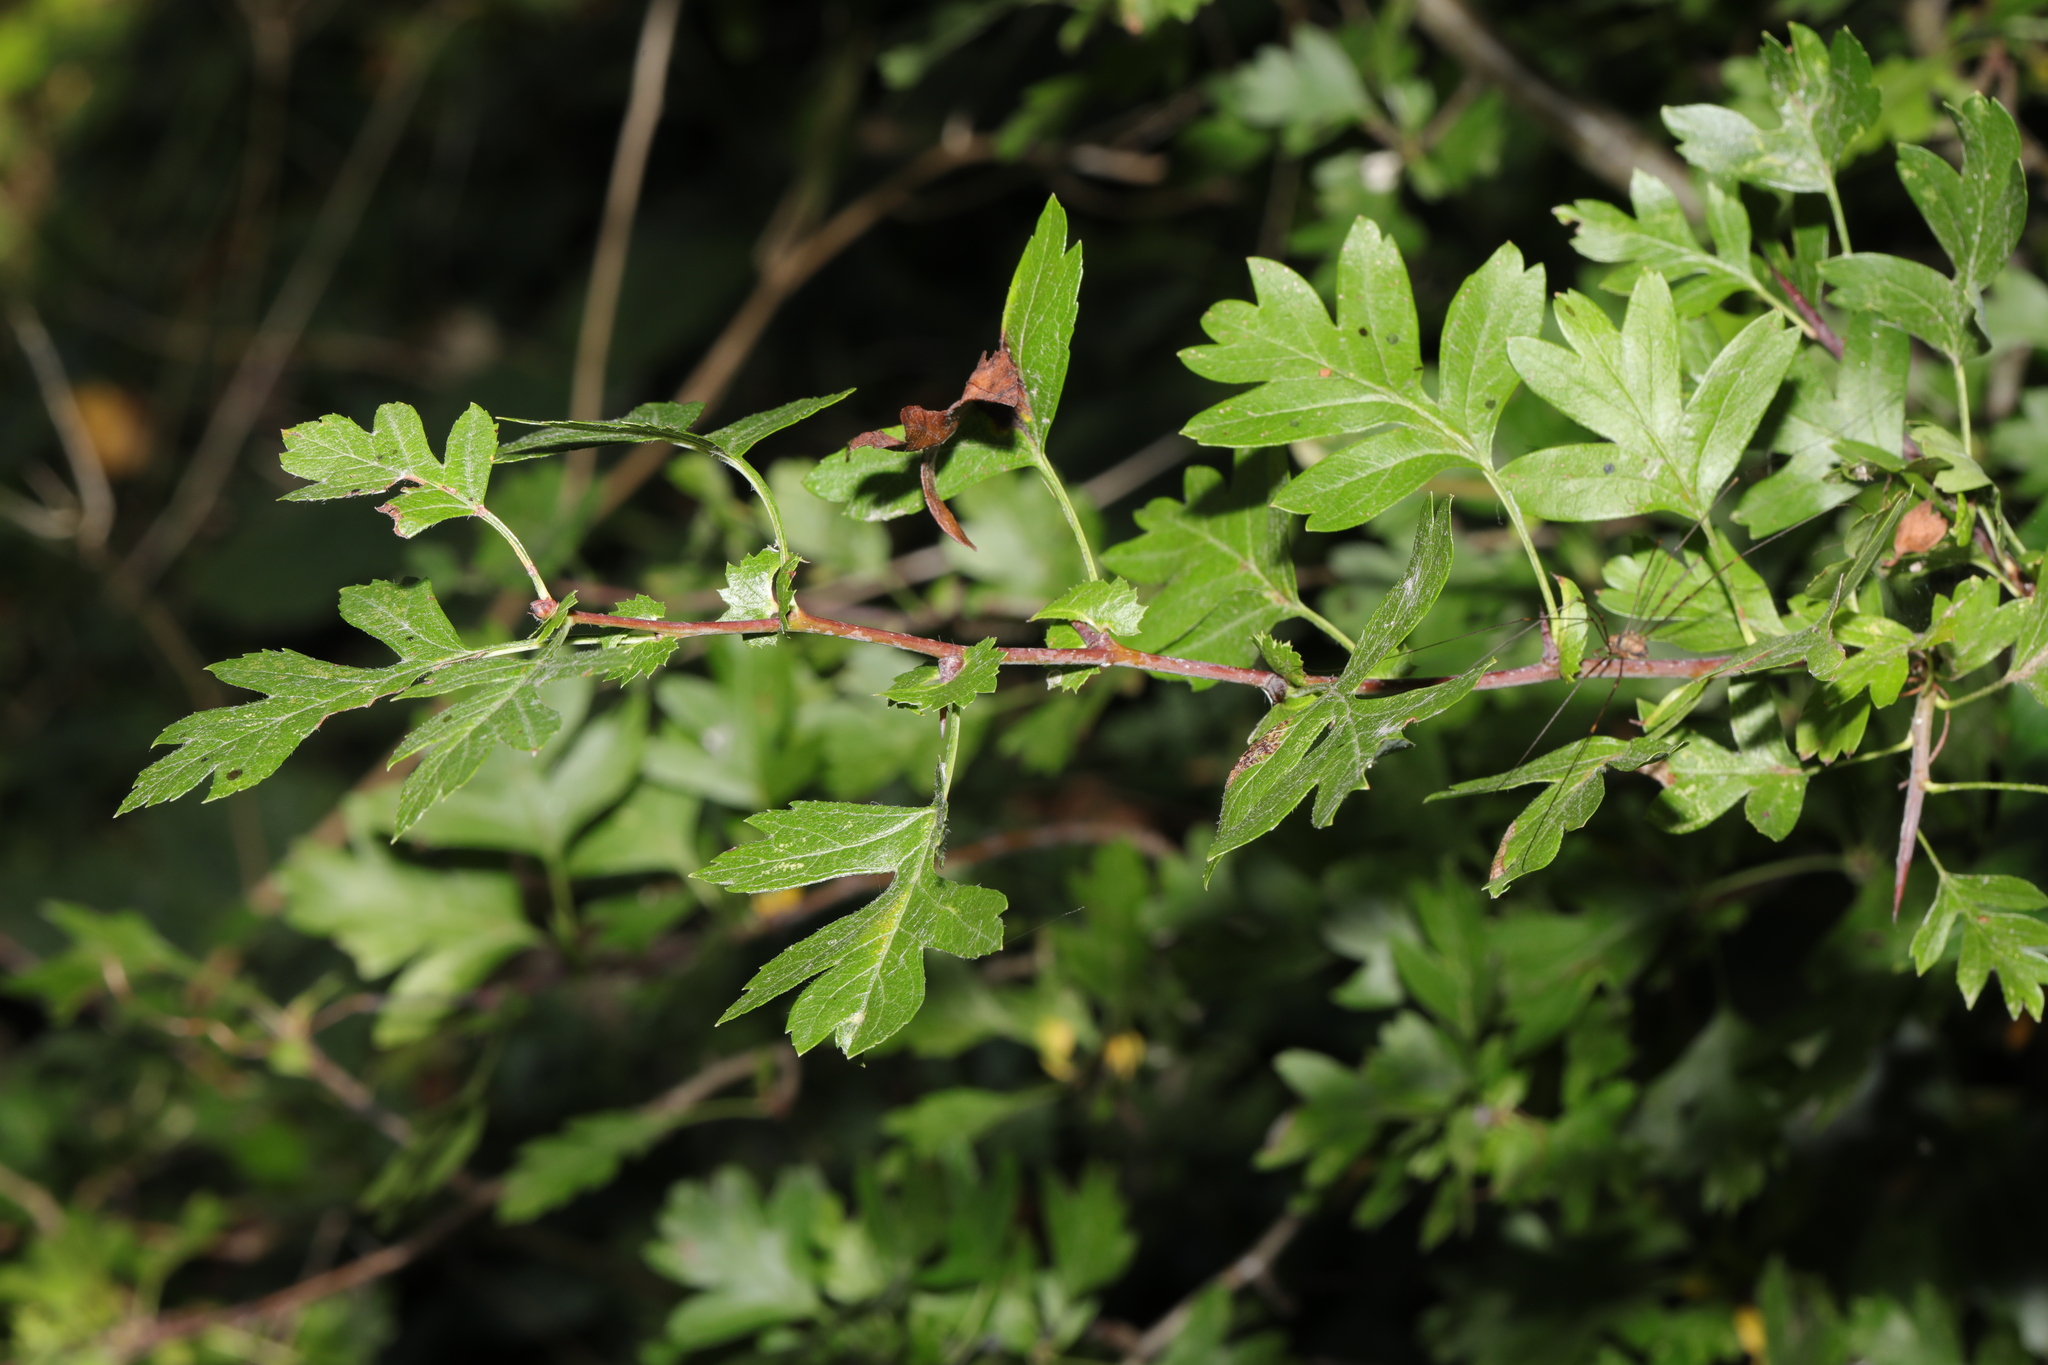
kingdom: Plantae
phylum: Tracheophyta
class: Magnoliopsida
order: Rosales
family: Rosaceae
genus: Crataegus
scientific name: Crataegus monogyna
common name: Hawthorn
